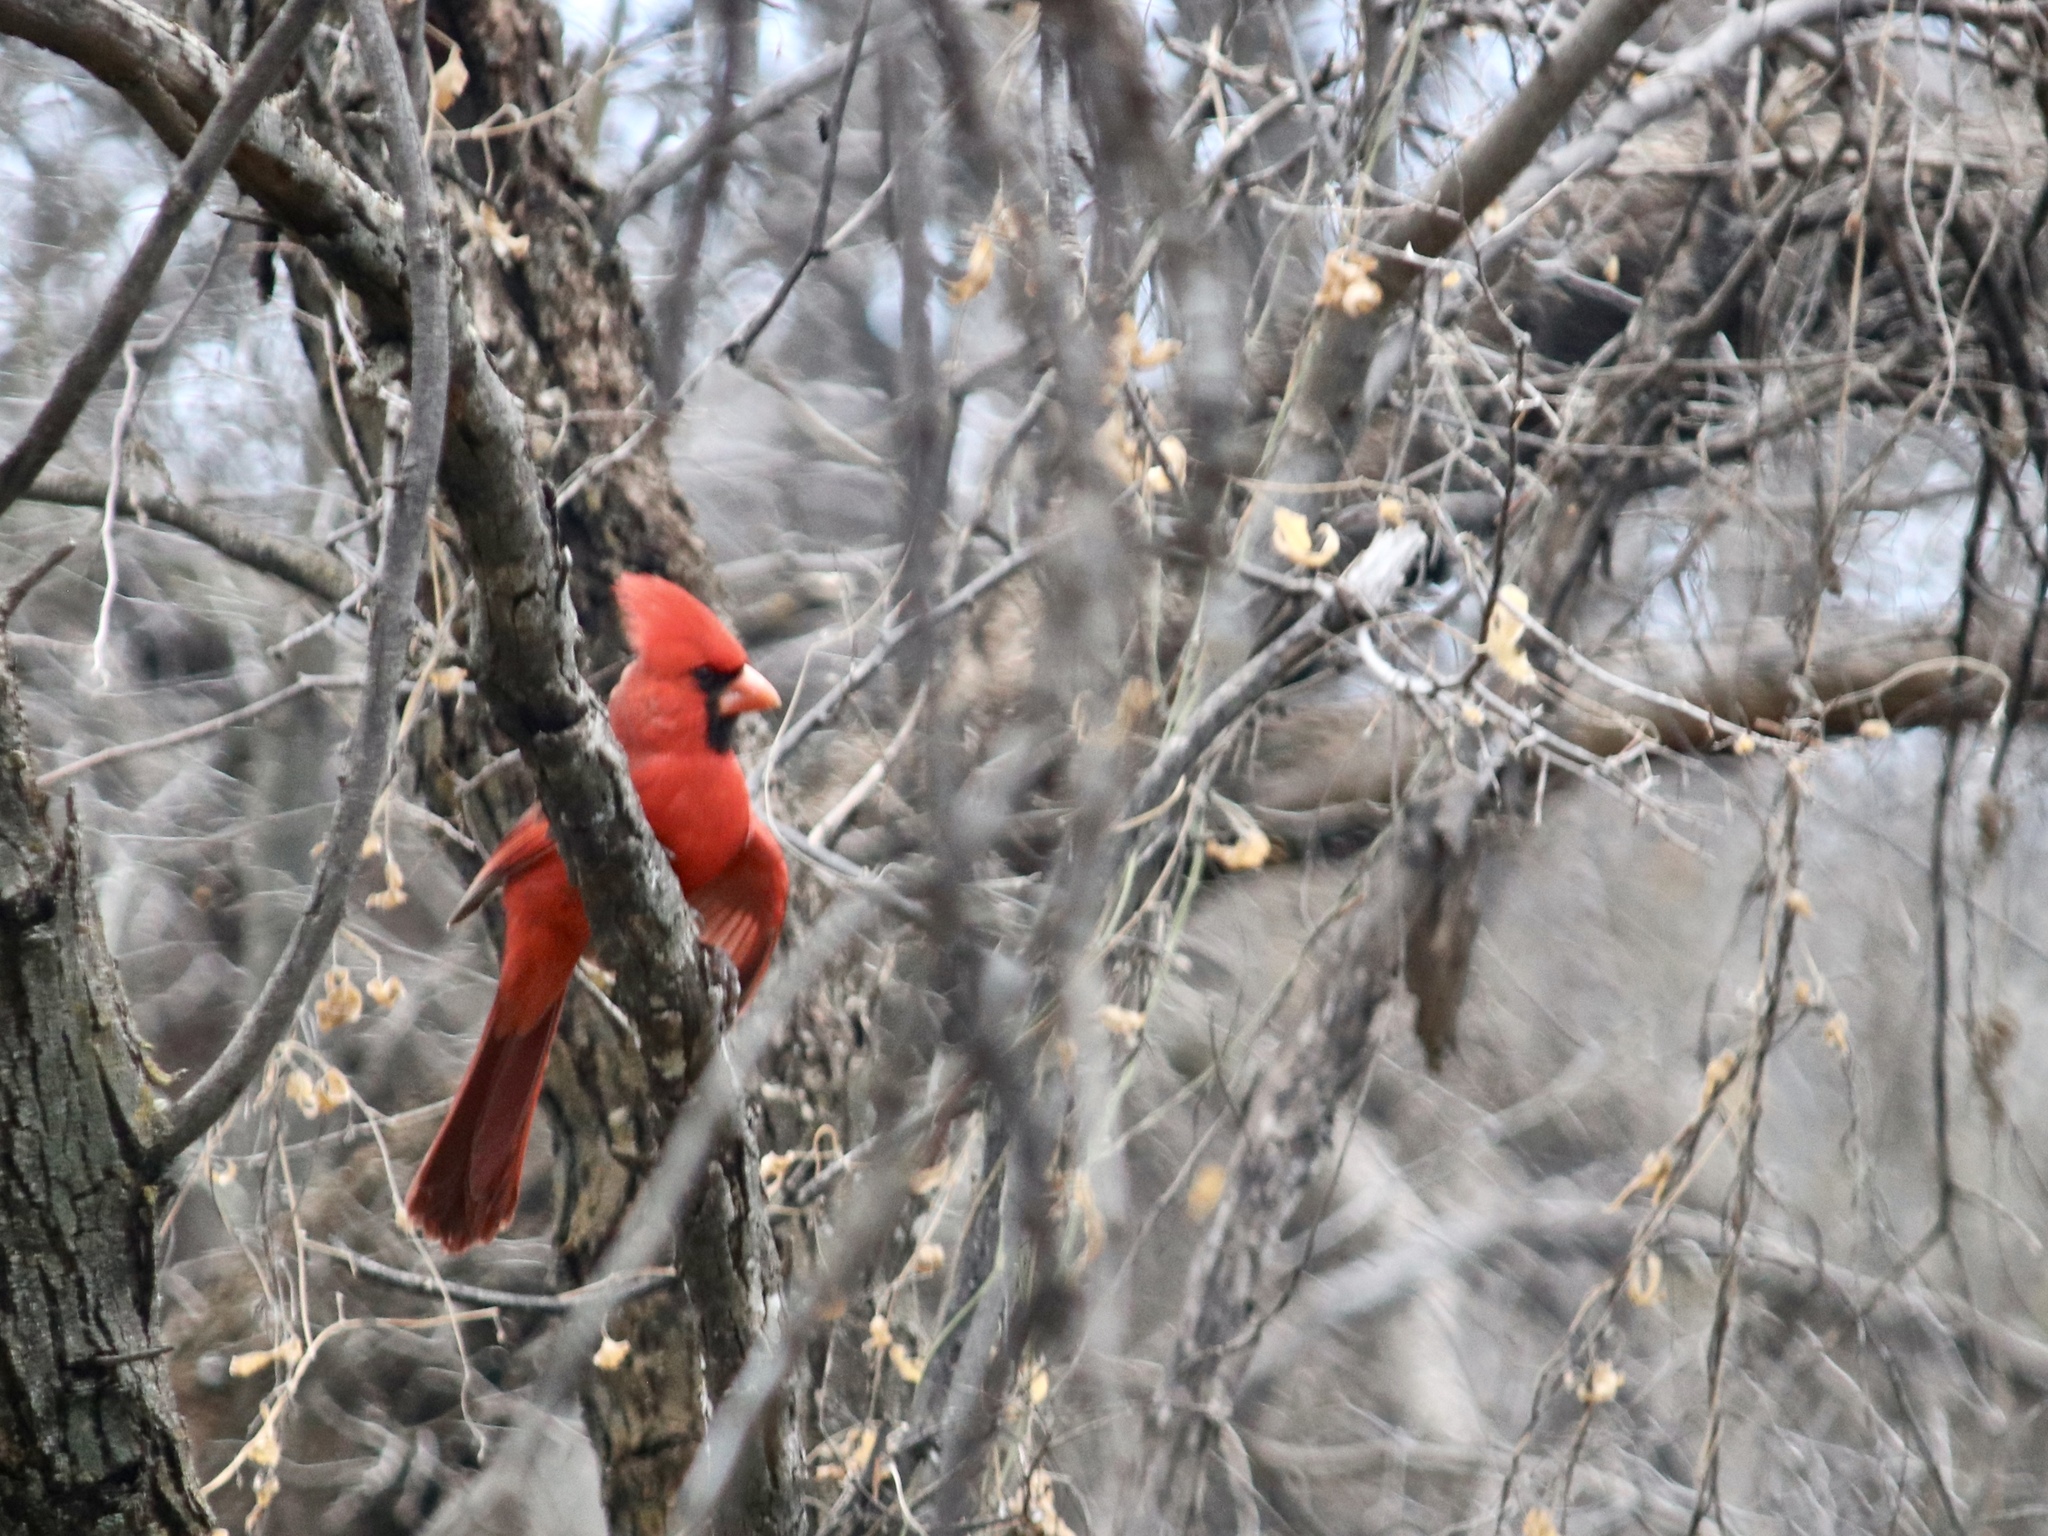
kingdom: Animalia
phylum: Chordata
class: Aves
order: Passeriformes
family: Cardinalidae
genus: Cardinalis
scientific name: Cardinalis cardinalis
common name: Northern cardinal
